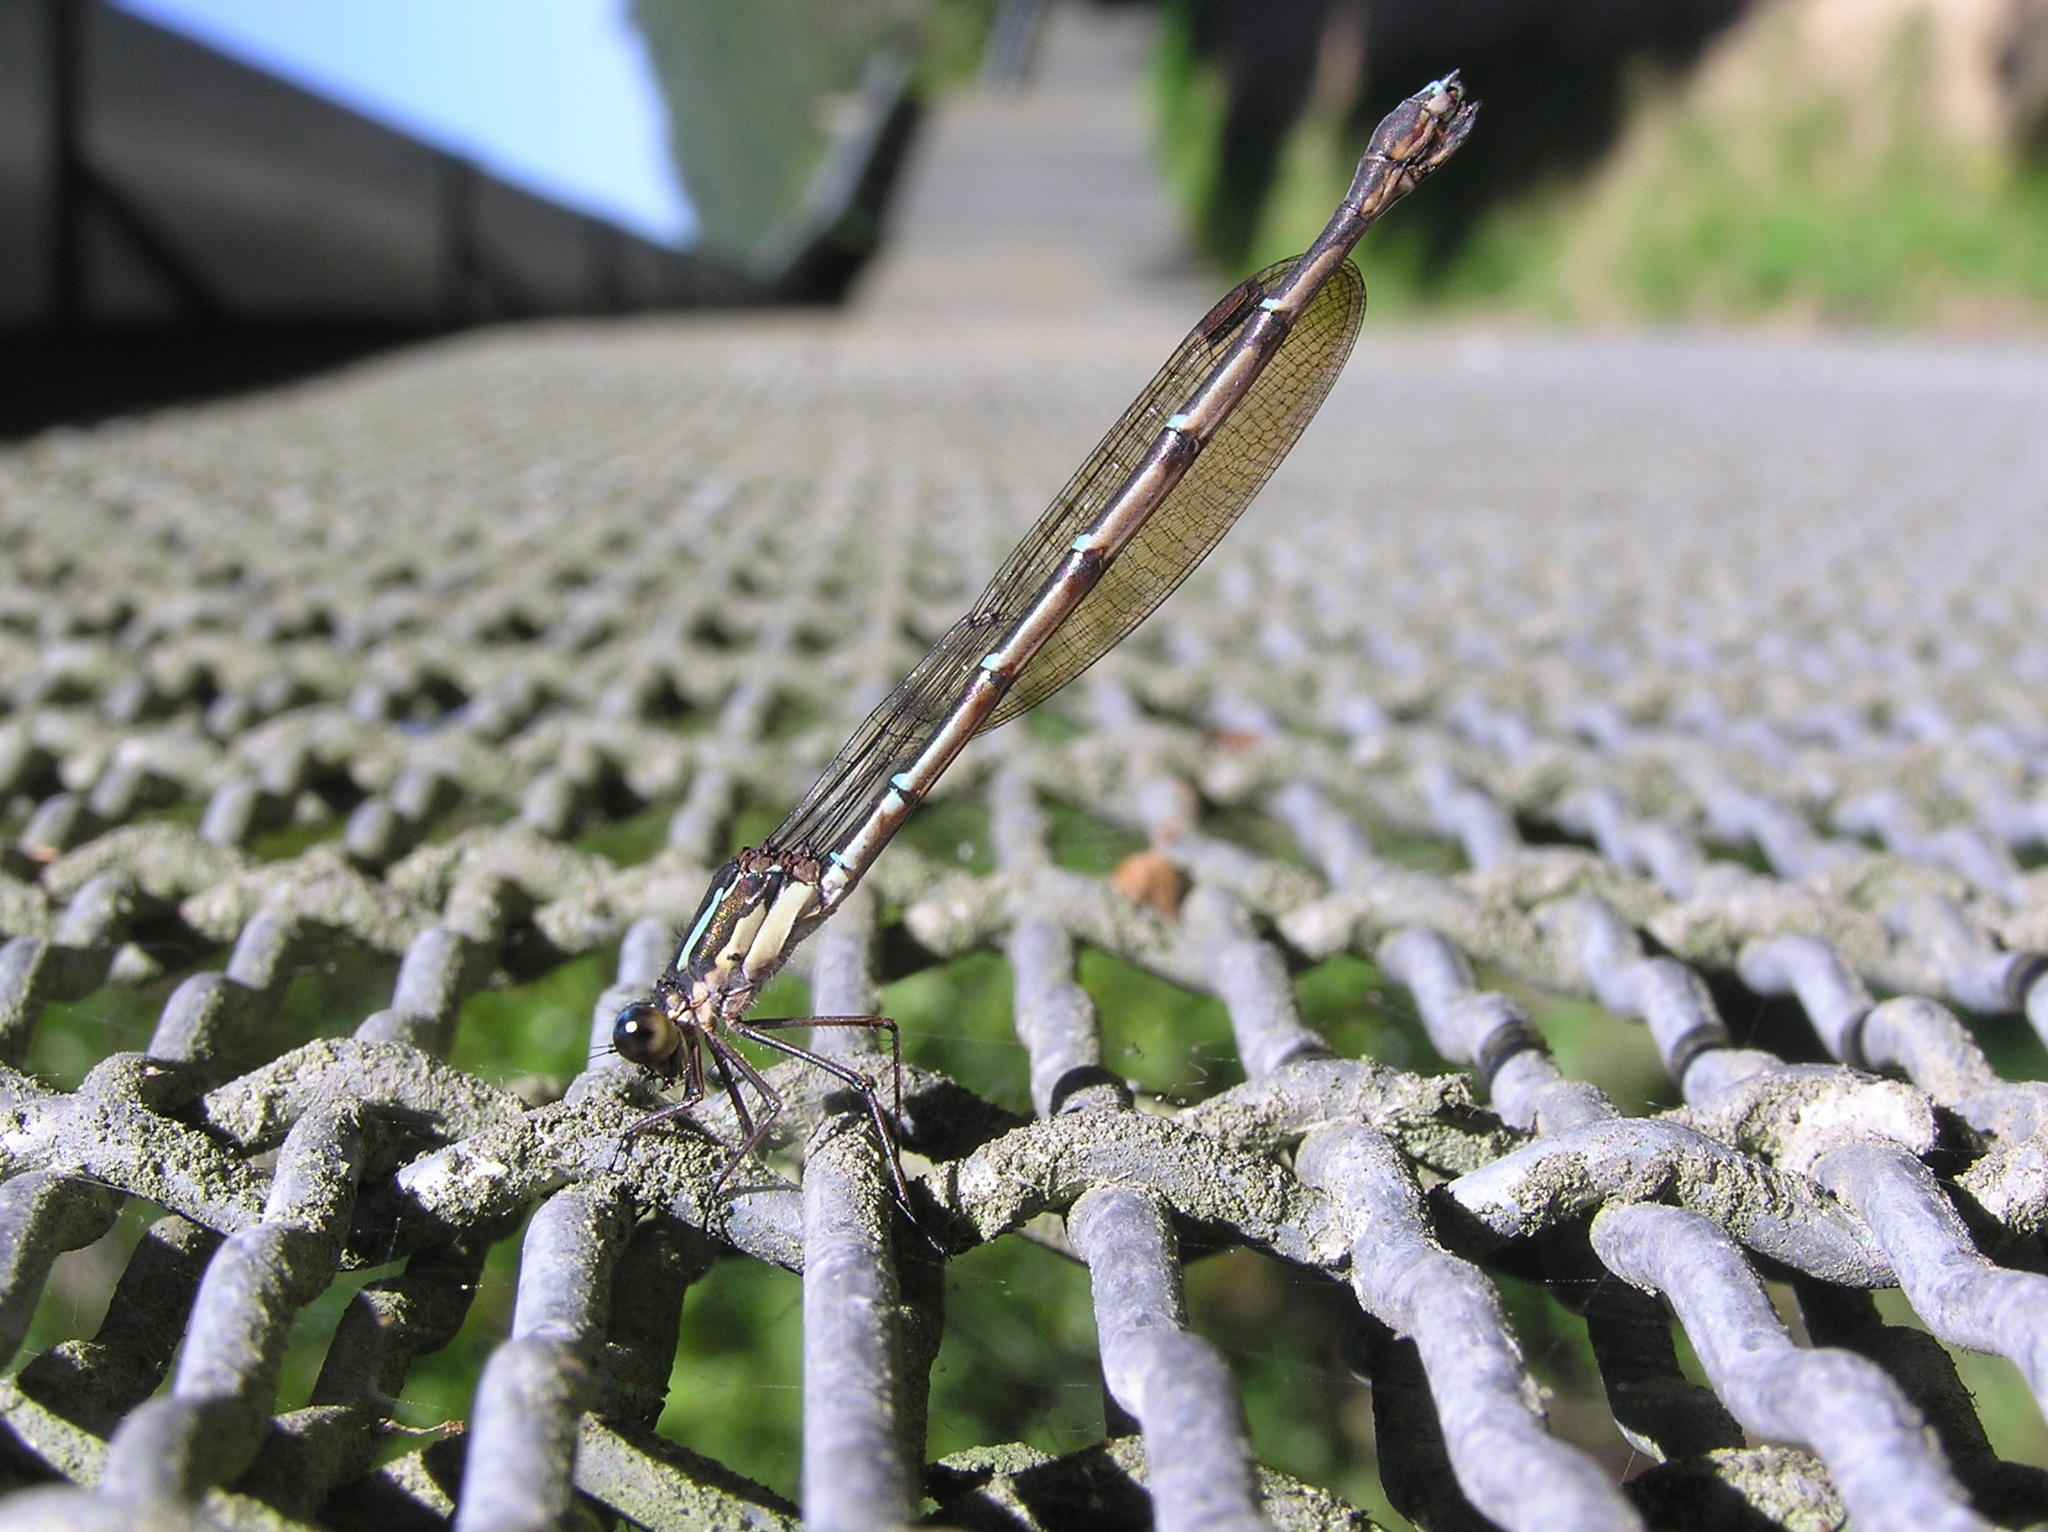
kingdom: Animalia
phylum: Arthropoda
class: Insecta
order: Odonata
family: Lestidae
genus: Austrolestes
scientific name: Austrolestes colensonis
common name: Blue damselfly
